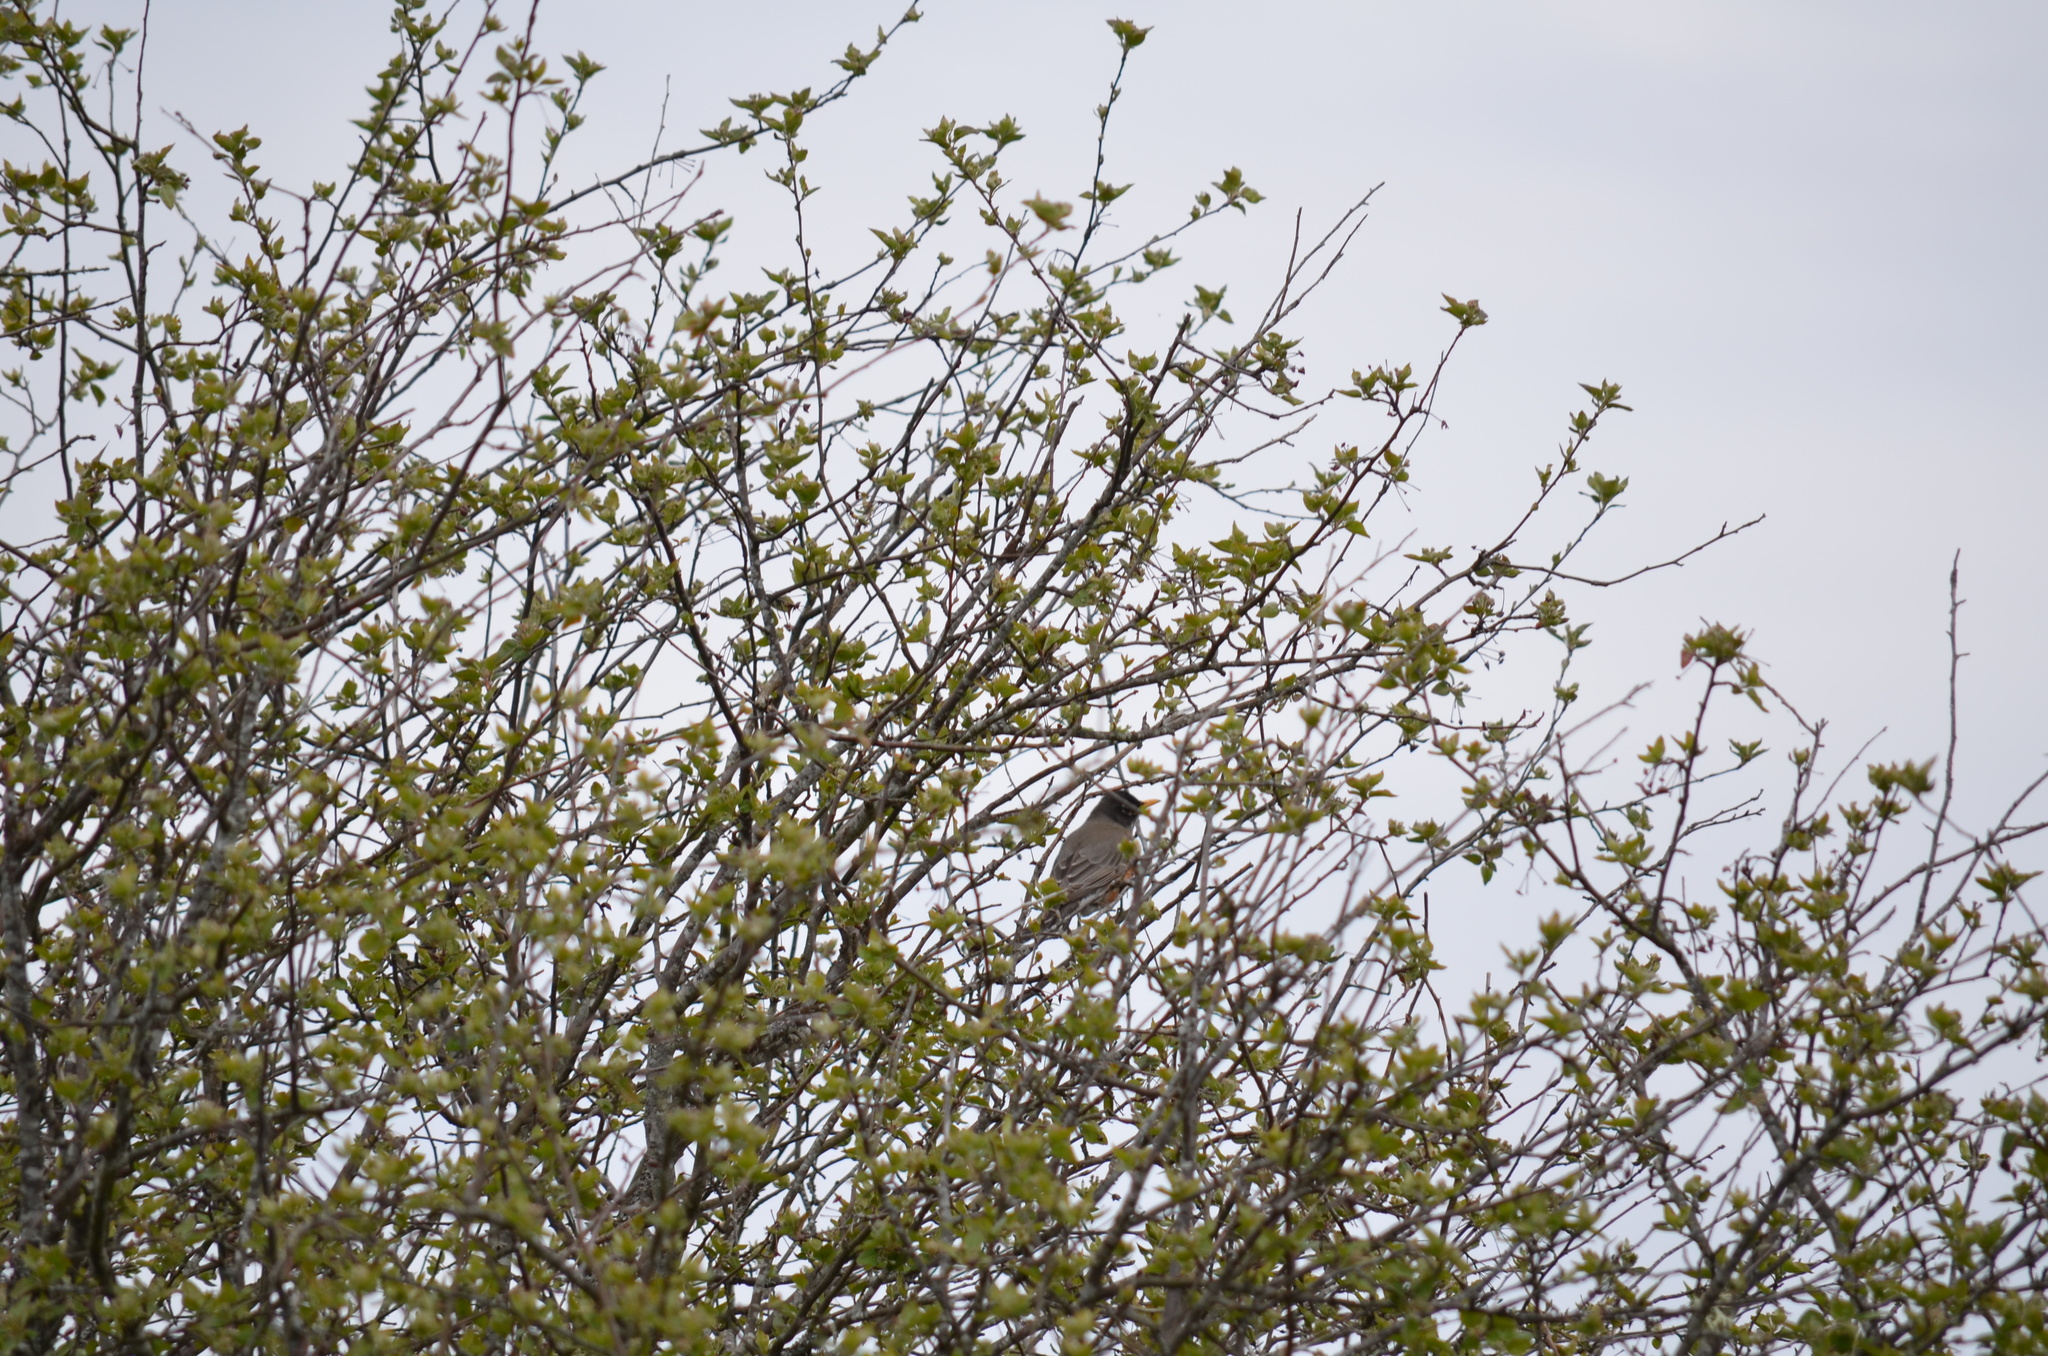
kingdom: Animalia
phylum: Chordata
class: Aves
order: Passeriformes
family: Turdidae
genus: Turdus
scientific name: Turdus migratorius
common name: American robin
